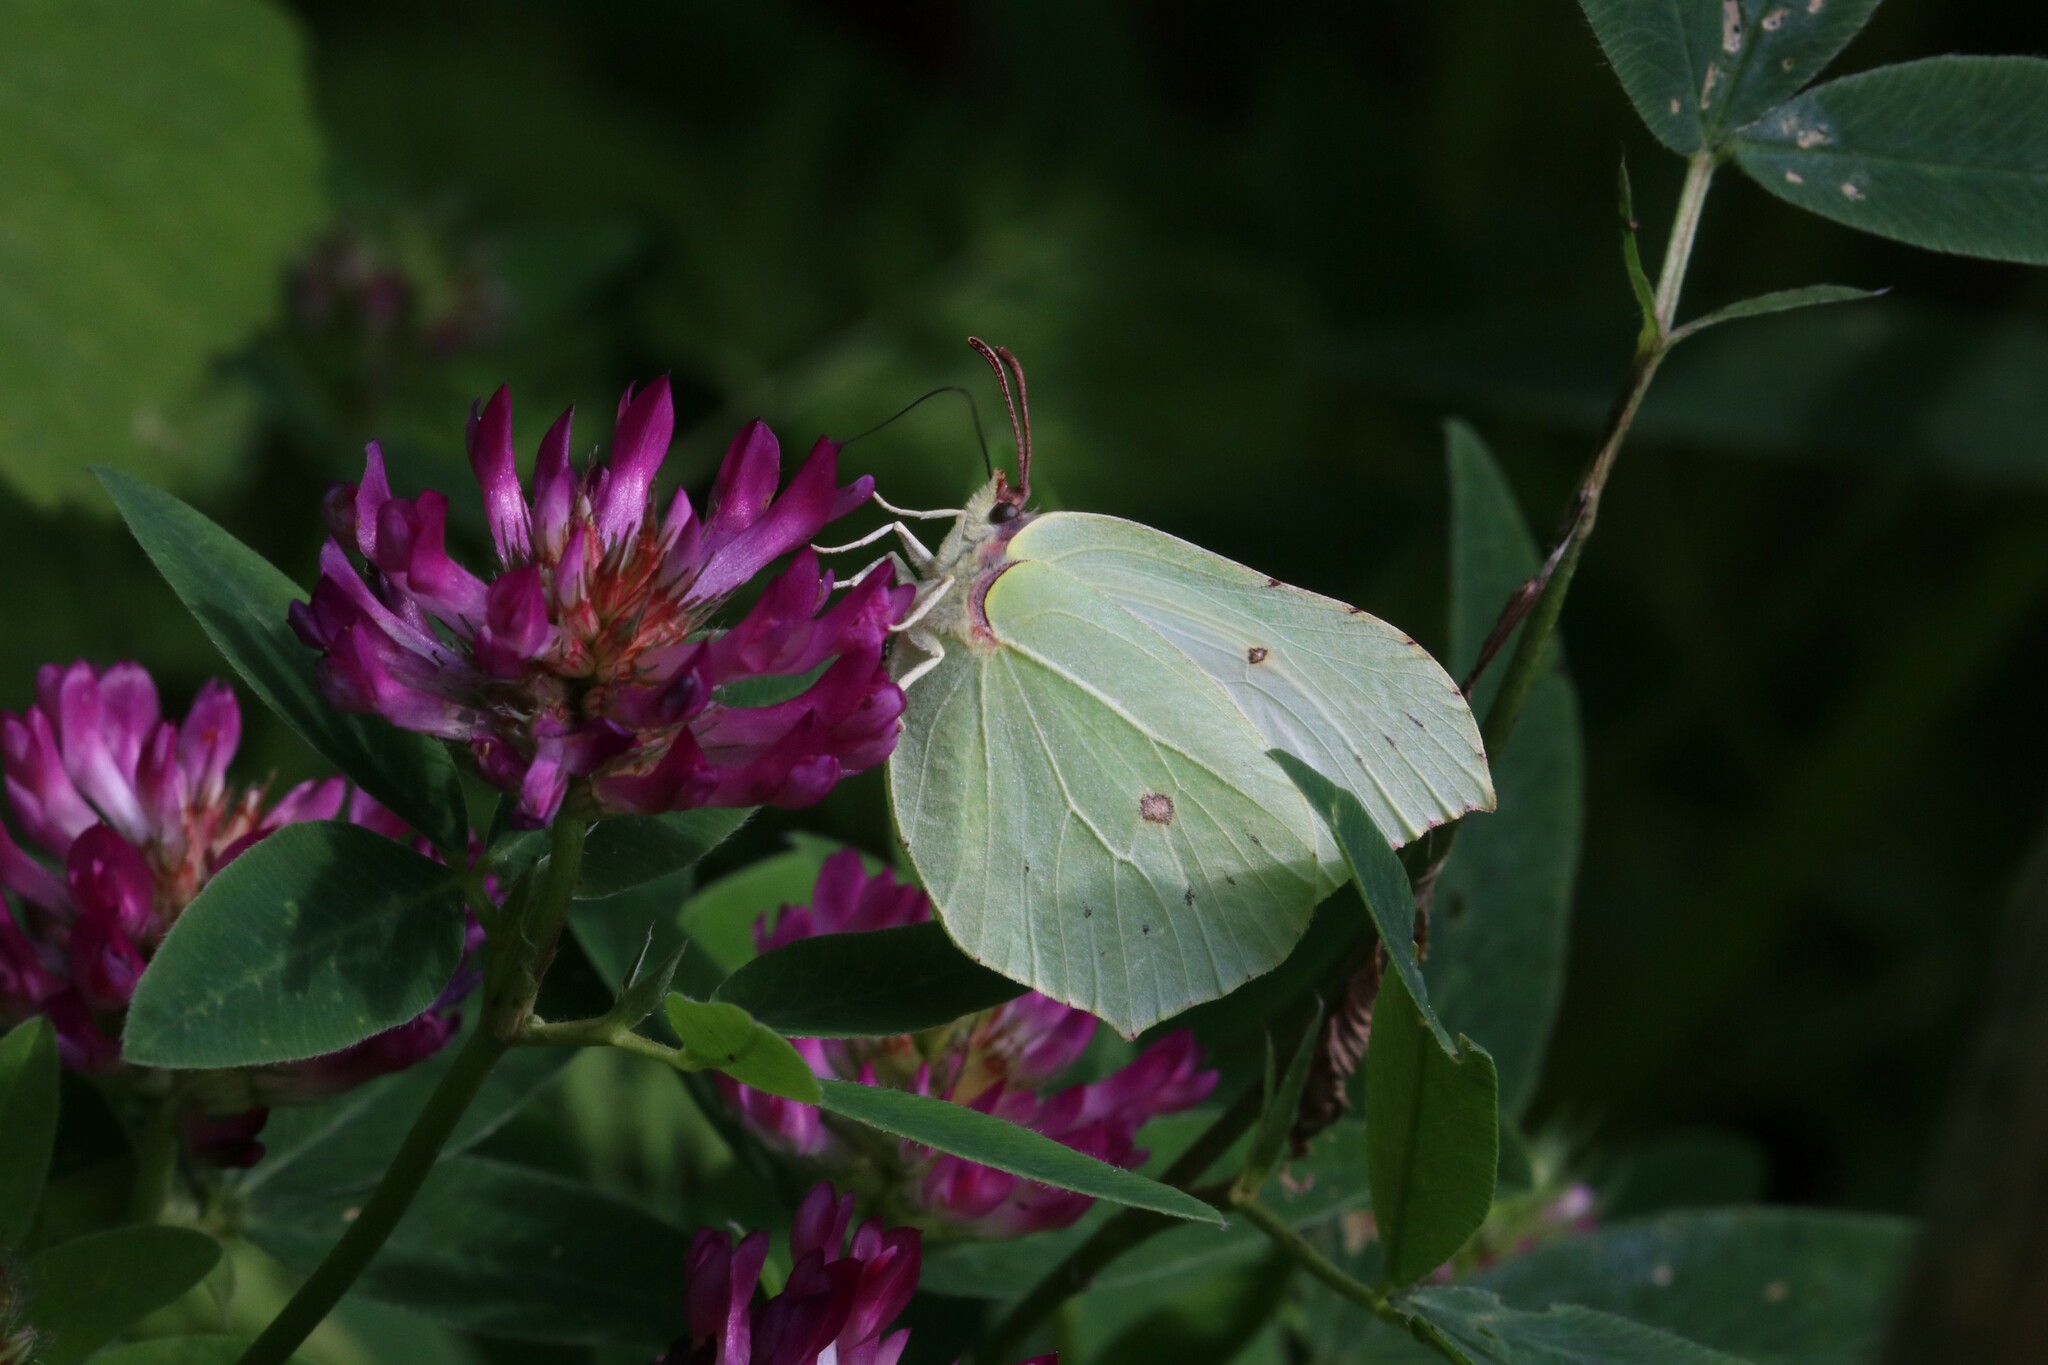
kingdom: Animalia
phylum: Arthropoda
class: Insecta
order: Lepidoptera
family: Pieridae
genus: Gonepteryx
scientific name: Gonepteryx rhamni
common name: Brimstone
